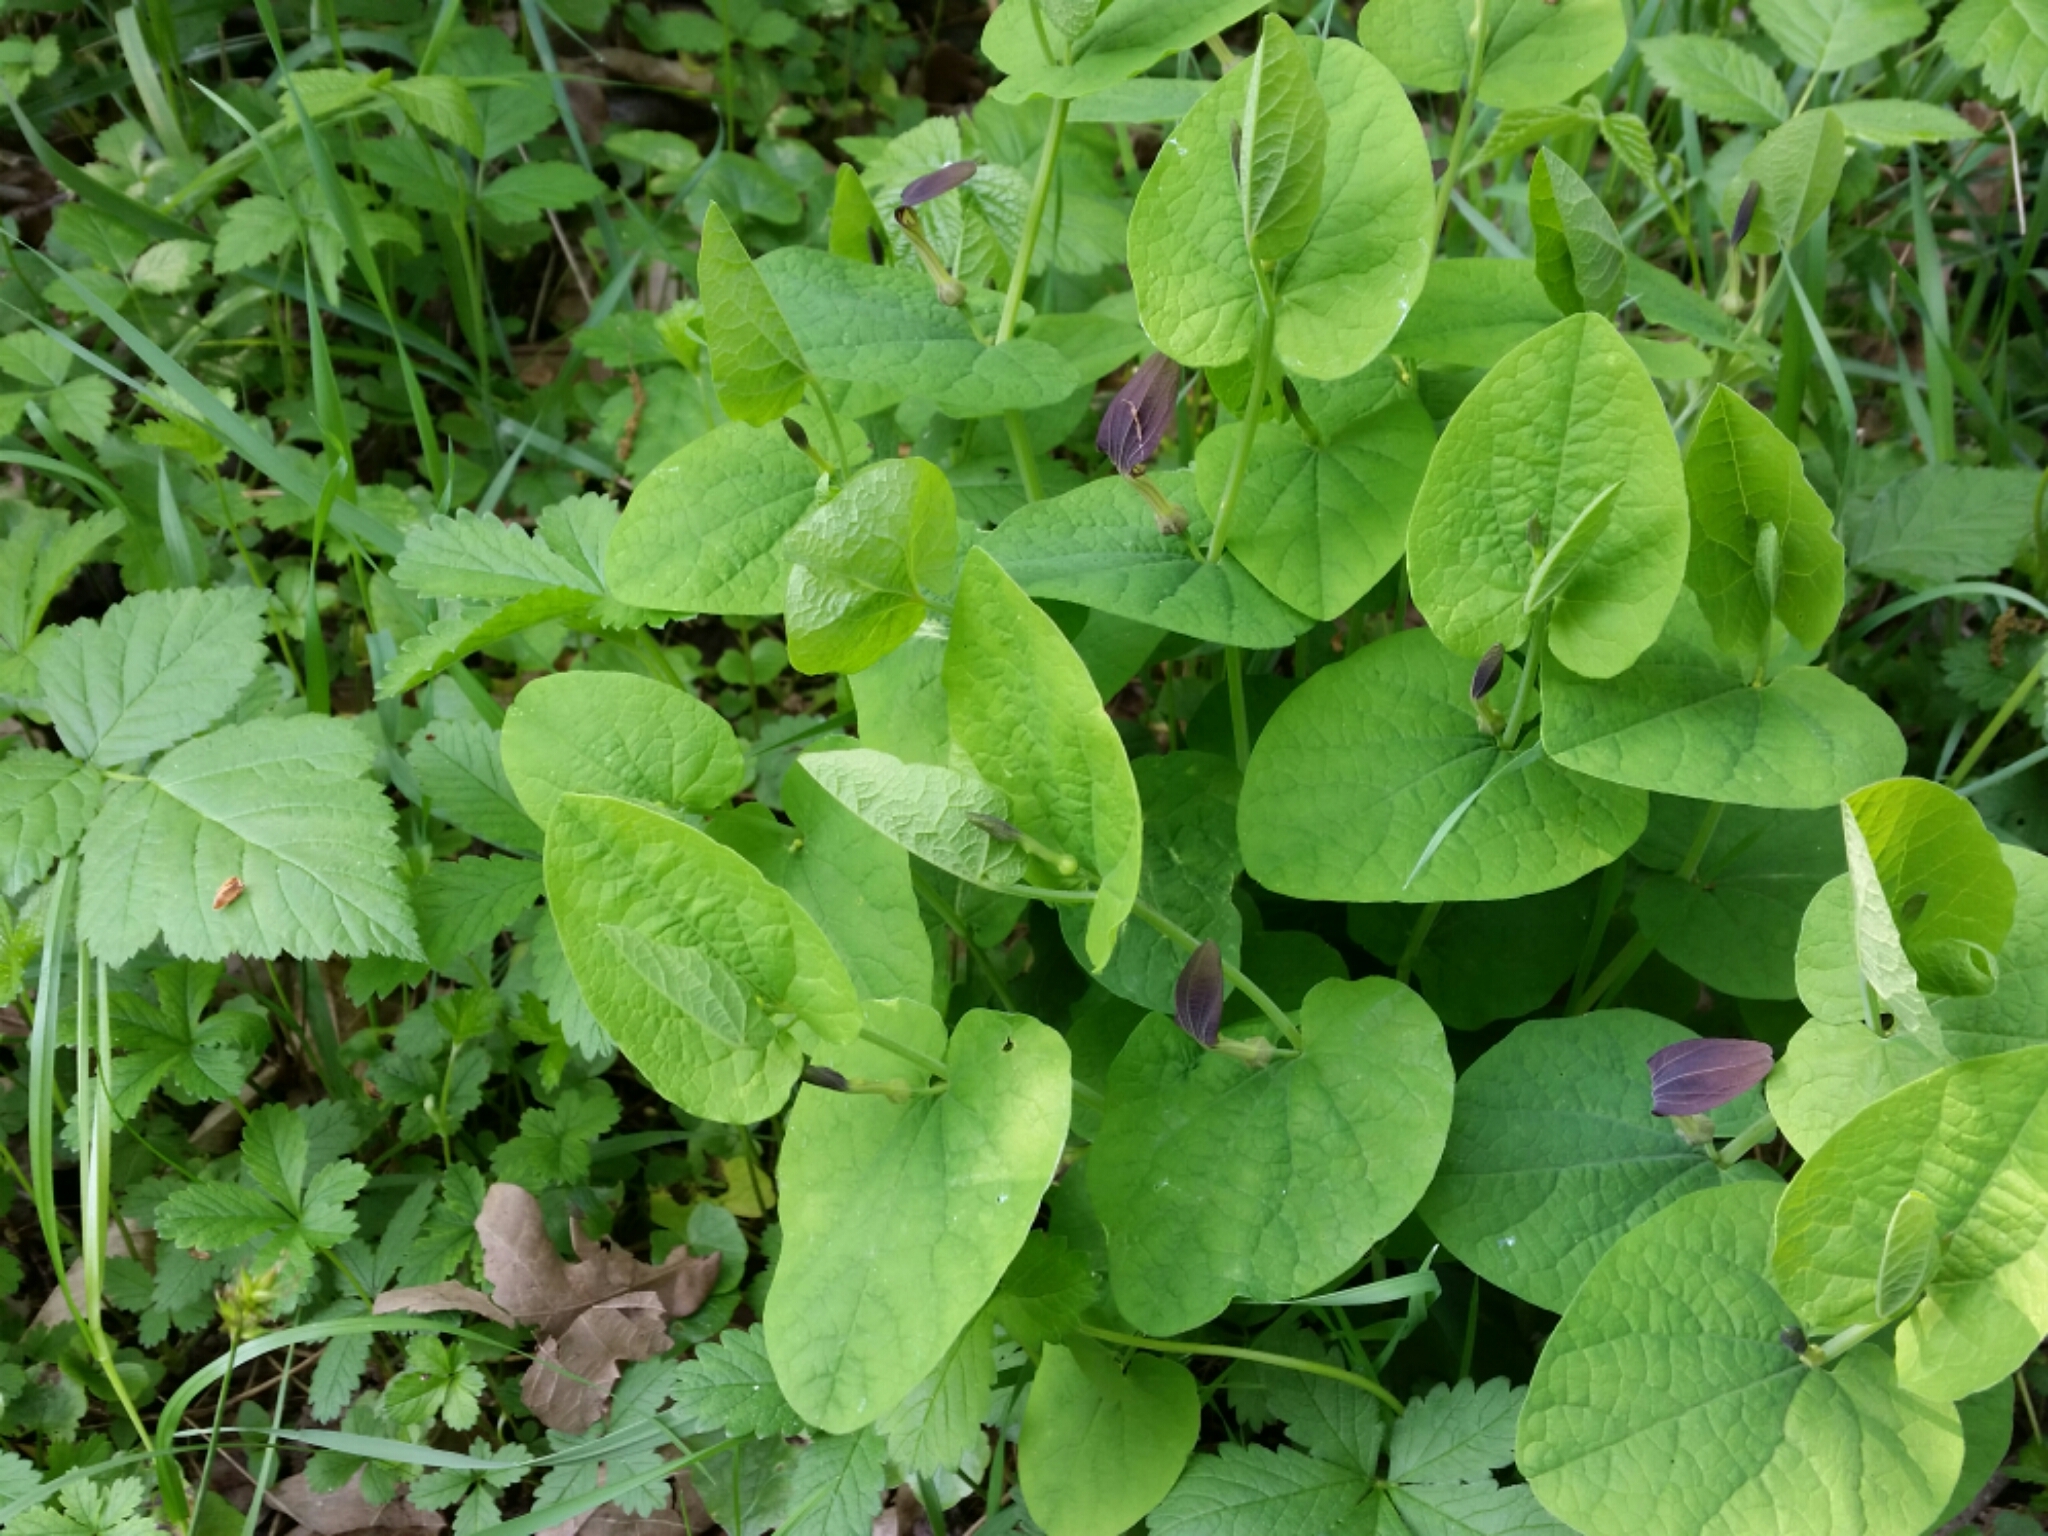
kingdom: Plantae
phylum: Tracheophyta
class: Magnoliopsida
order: Piperales
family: Aristolochiaceae
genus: Aristolochia
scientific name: Aristolochia rotunda
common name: Smearwort
